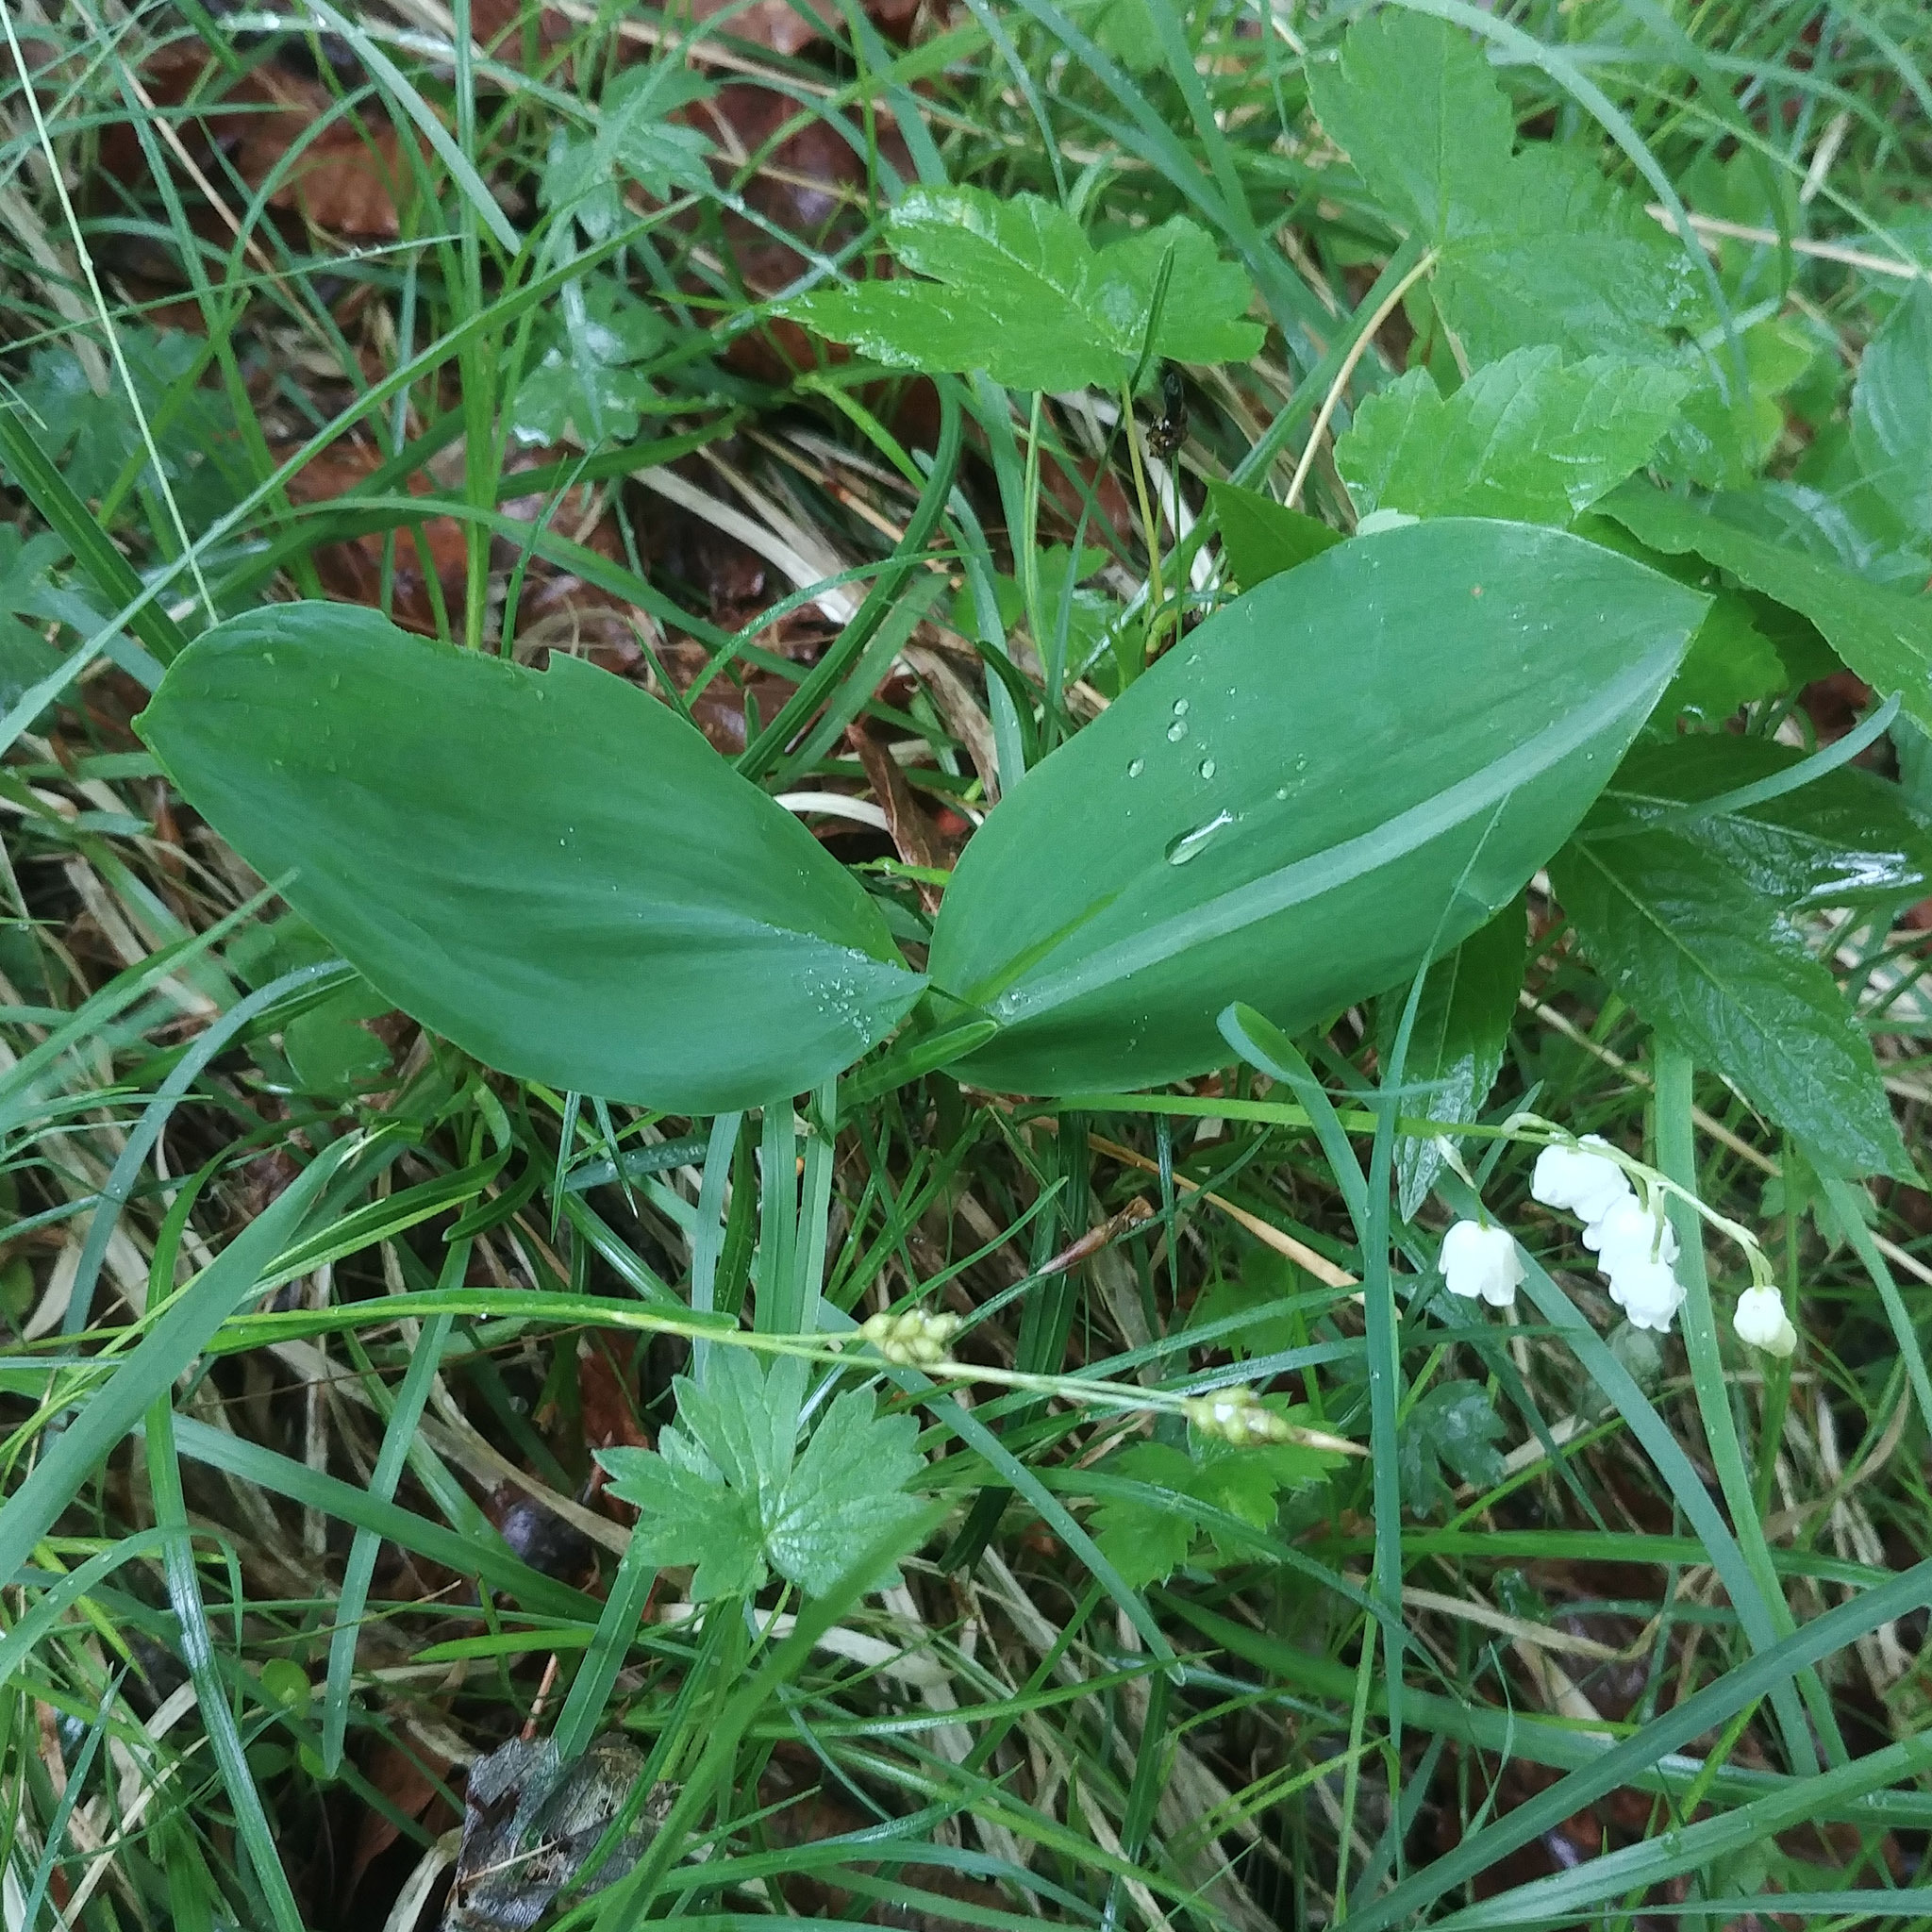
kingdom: Plantae
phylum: Tracheophyta
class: Liliopsida
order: Asparagales
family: Asparagaceae
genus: Convallaria
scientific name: Convallaria majalis
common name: Lily-of-the-valley
